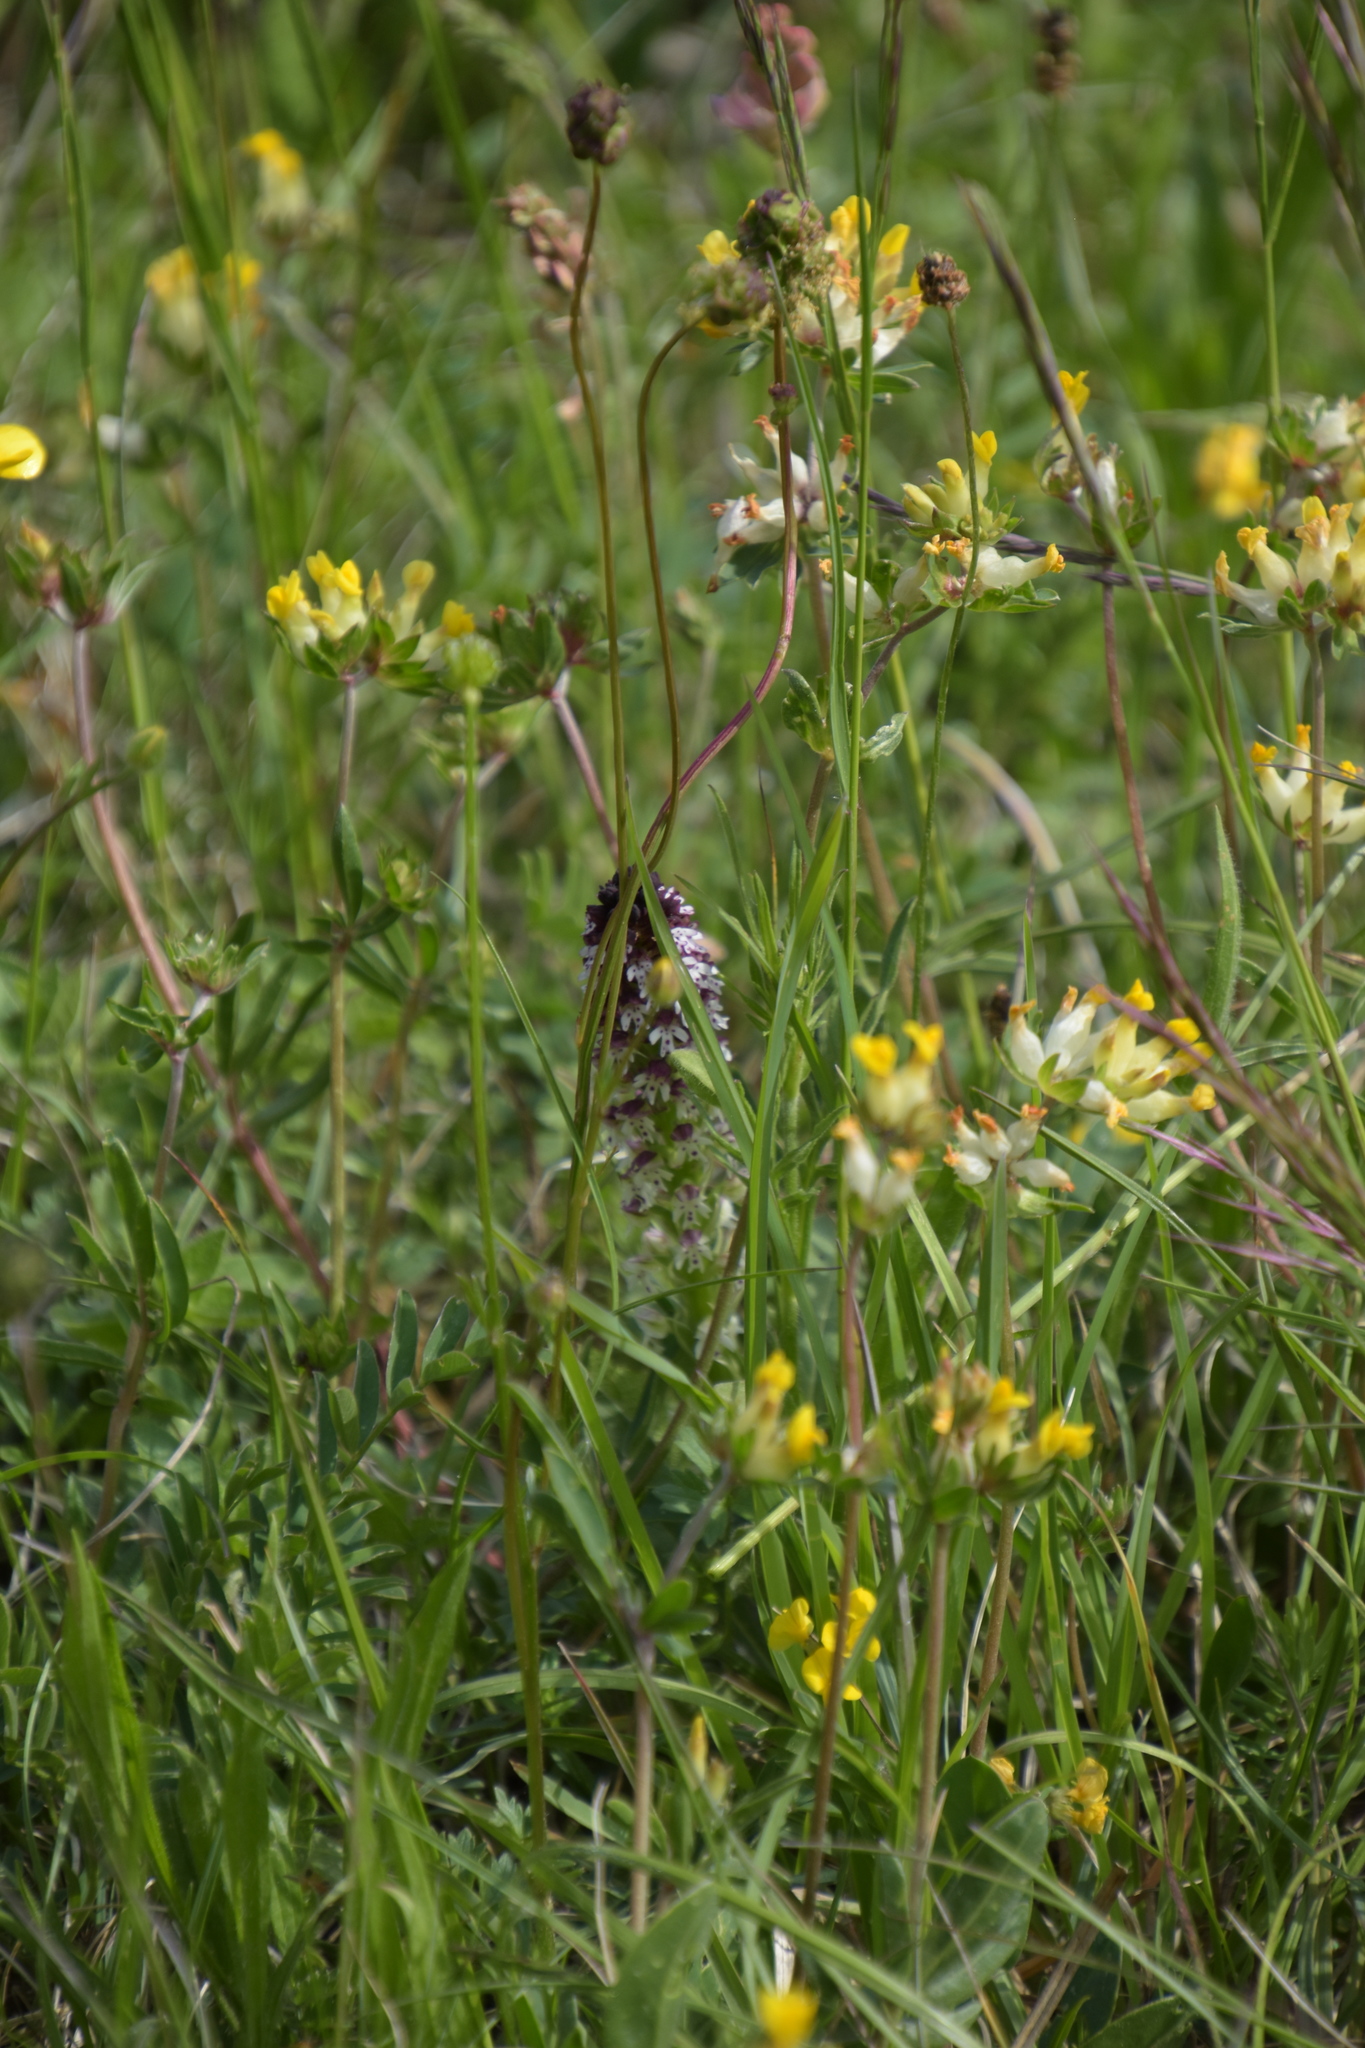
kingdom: Plantae
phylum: Tracheophyta
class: Liliopsida
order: Asparagales
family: Orchidaceae
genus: Neotinea
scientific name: Neotinea ustulata
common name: Burnt orchid
